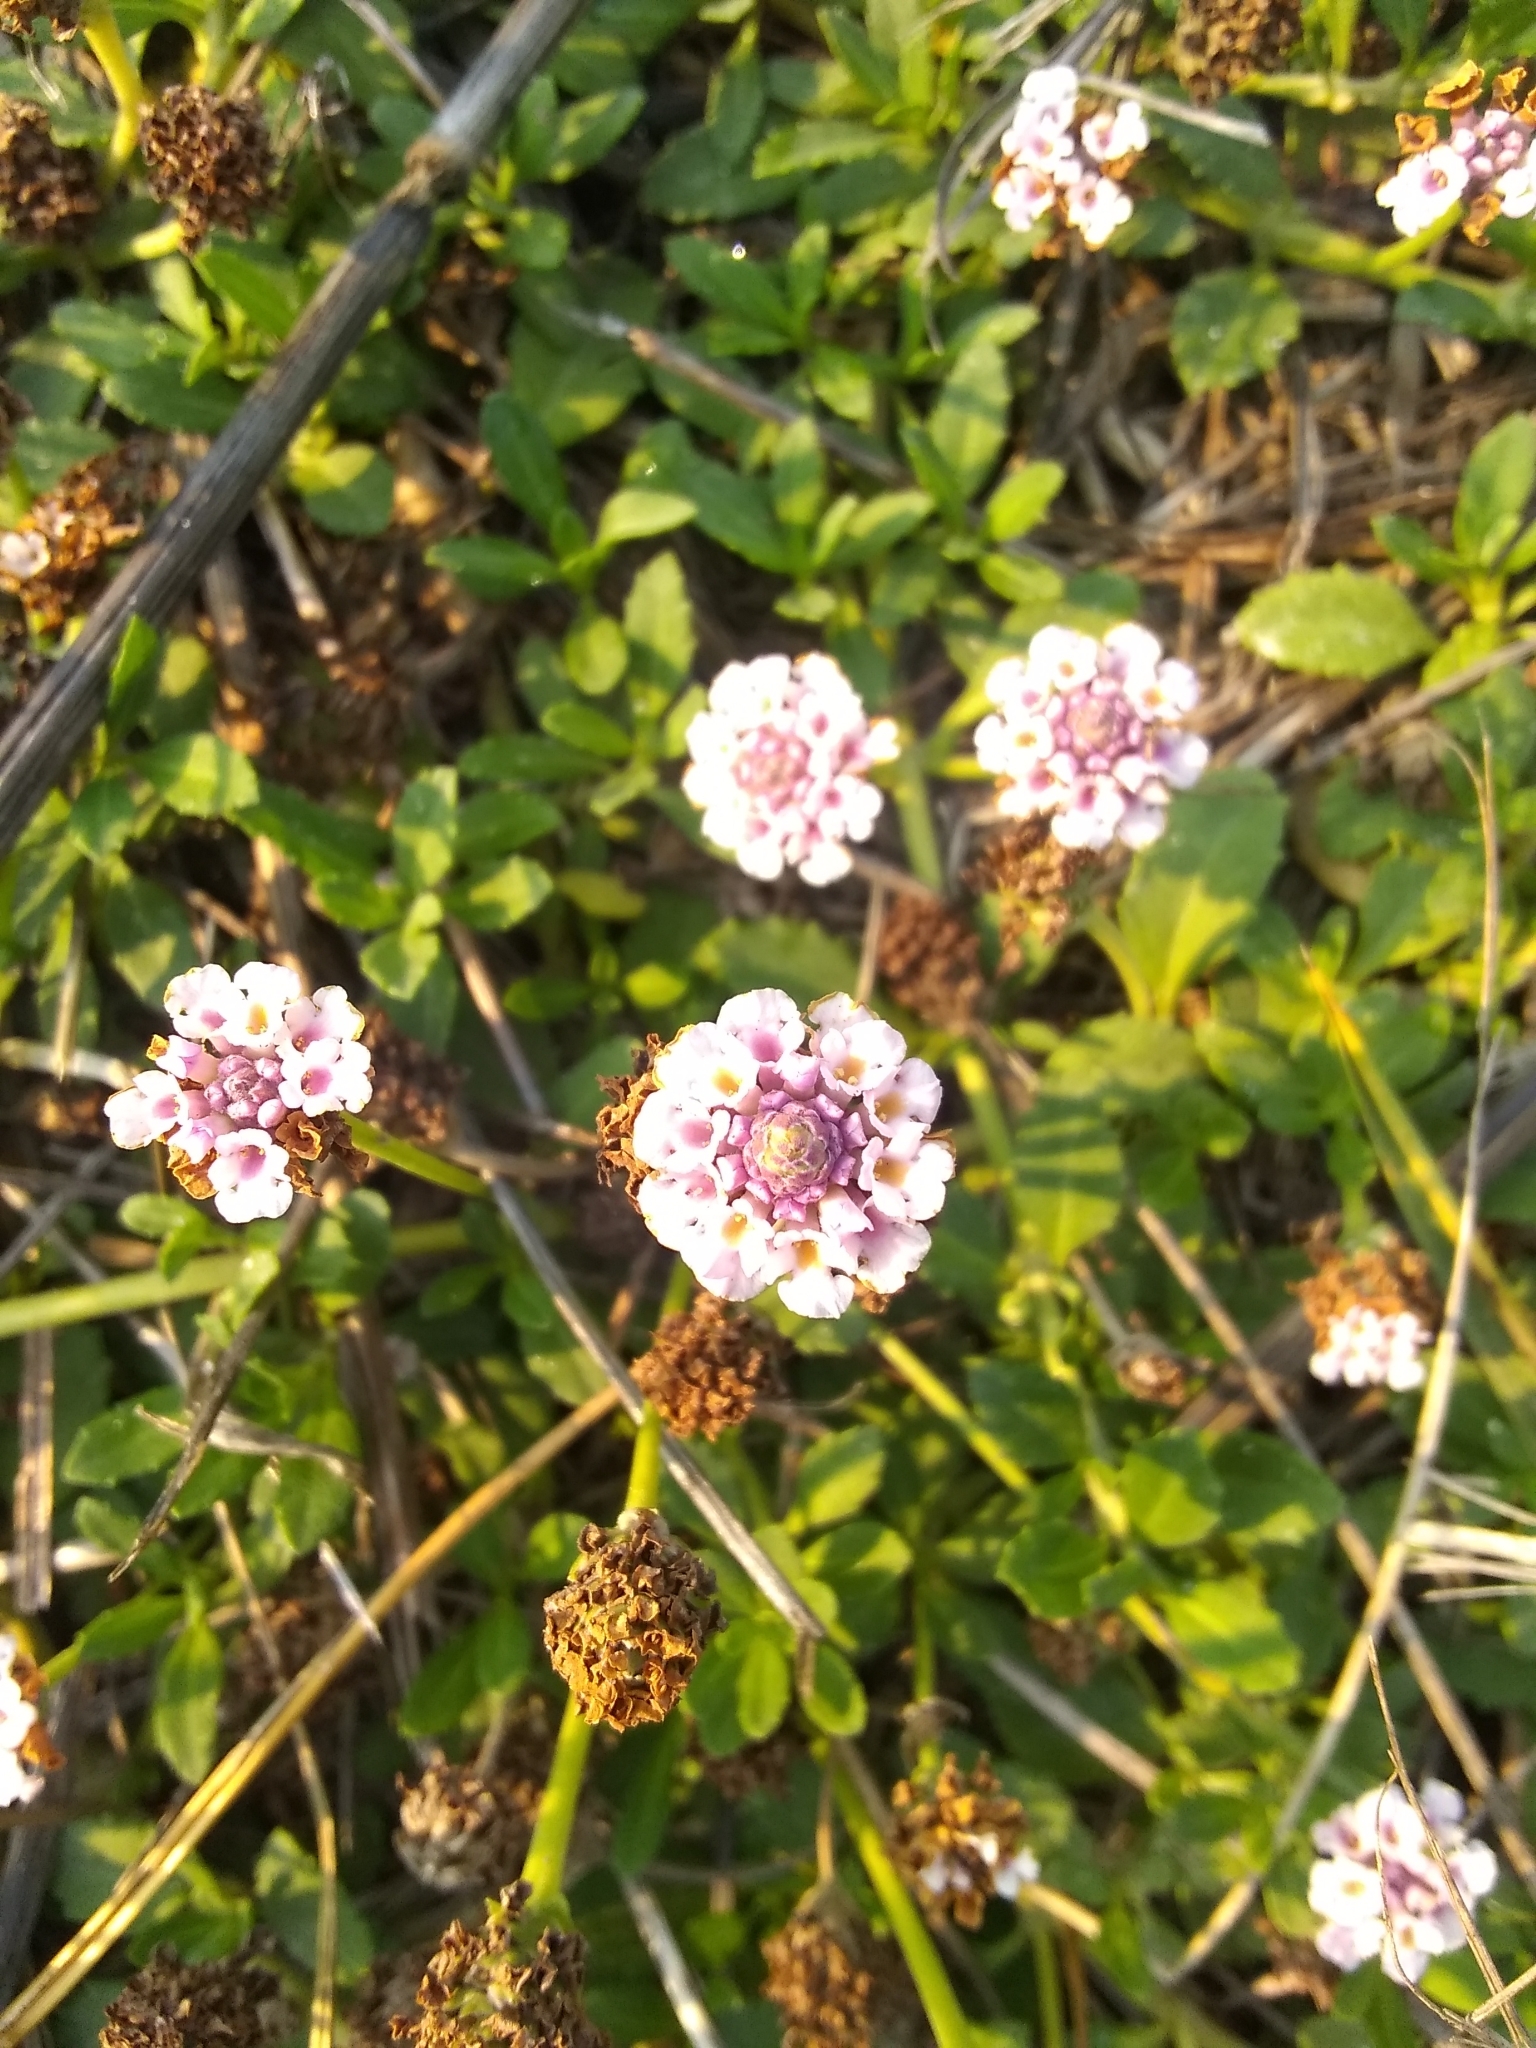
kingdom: Plantae
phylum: Tracheophyta
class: Magnoliopsida
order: Lamiales
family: Verbenaceae
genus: Phyla
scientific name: Phyla nodiflora
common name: Frogfruit
